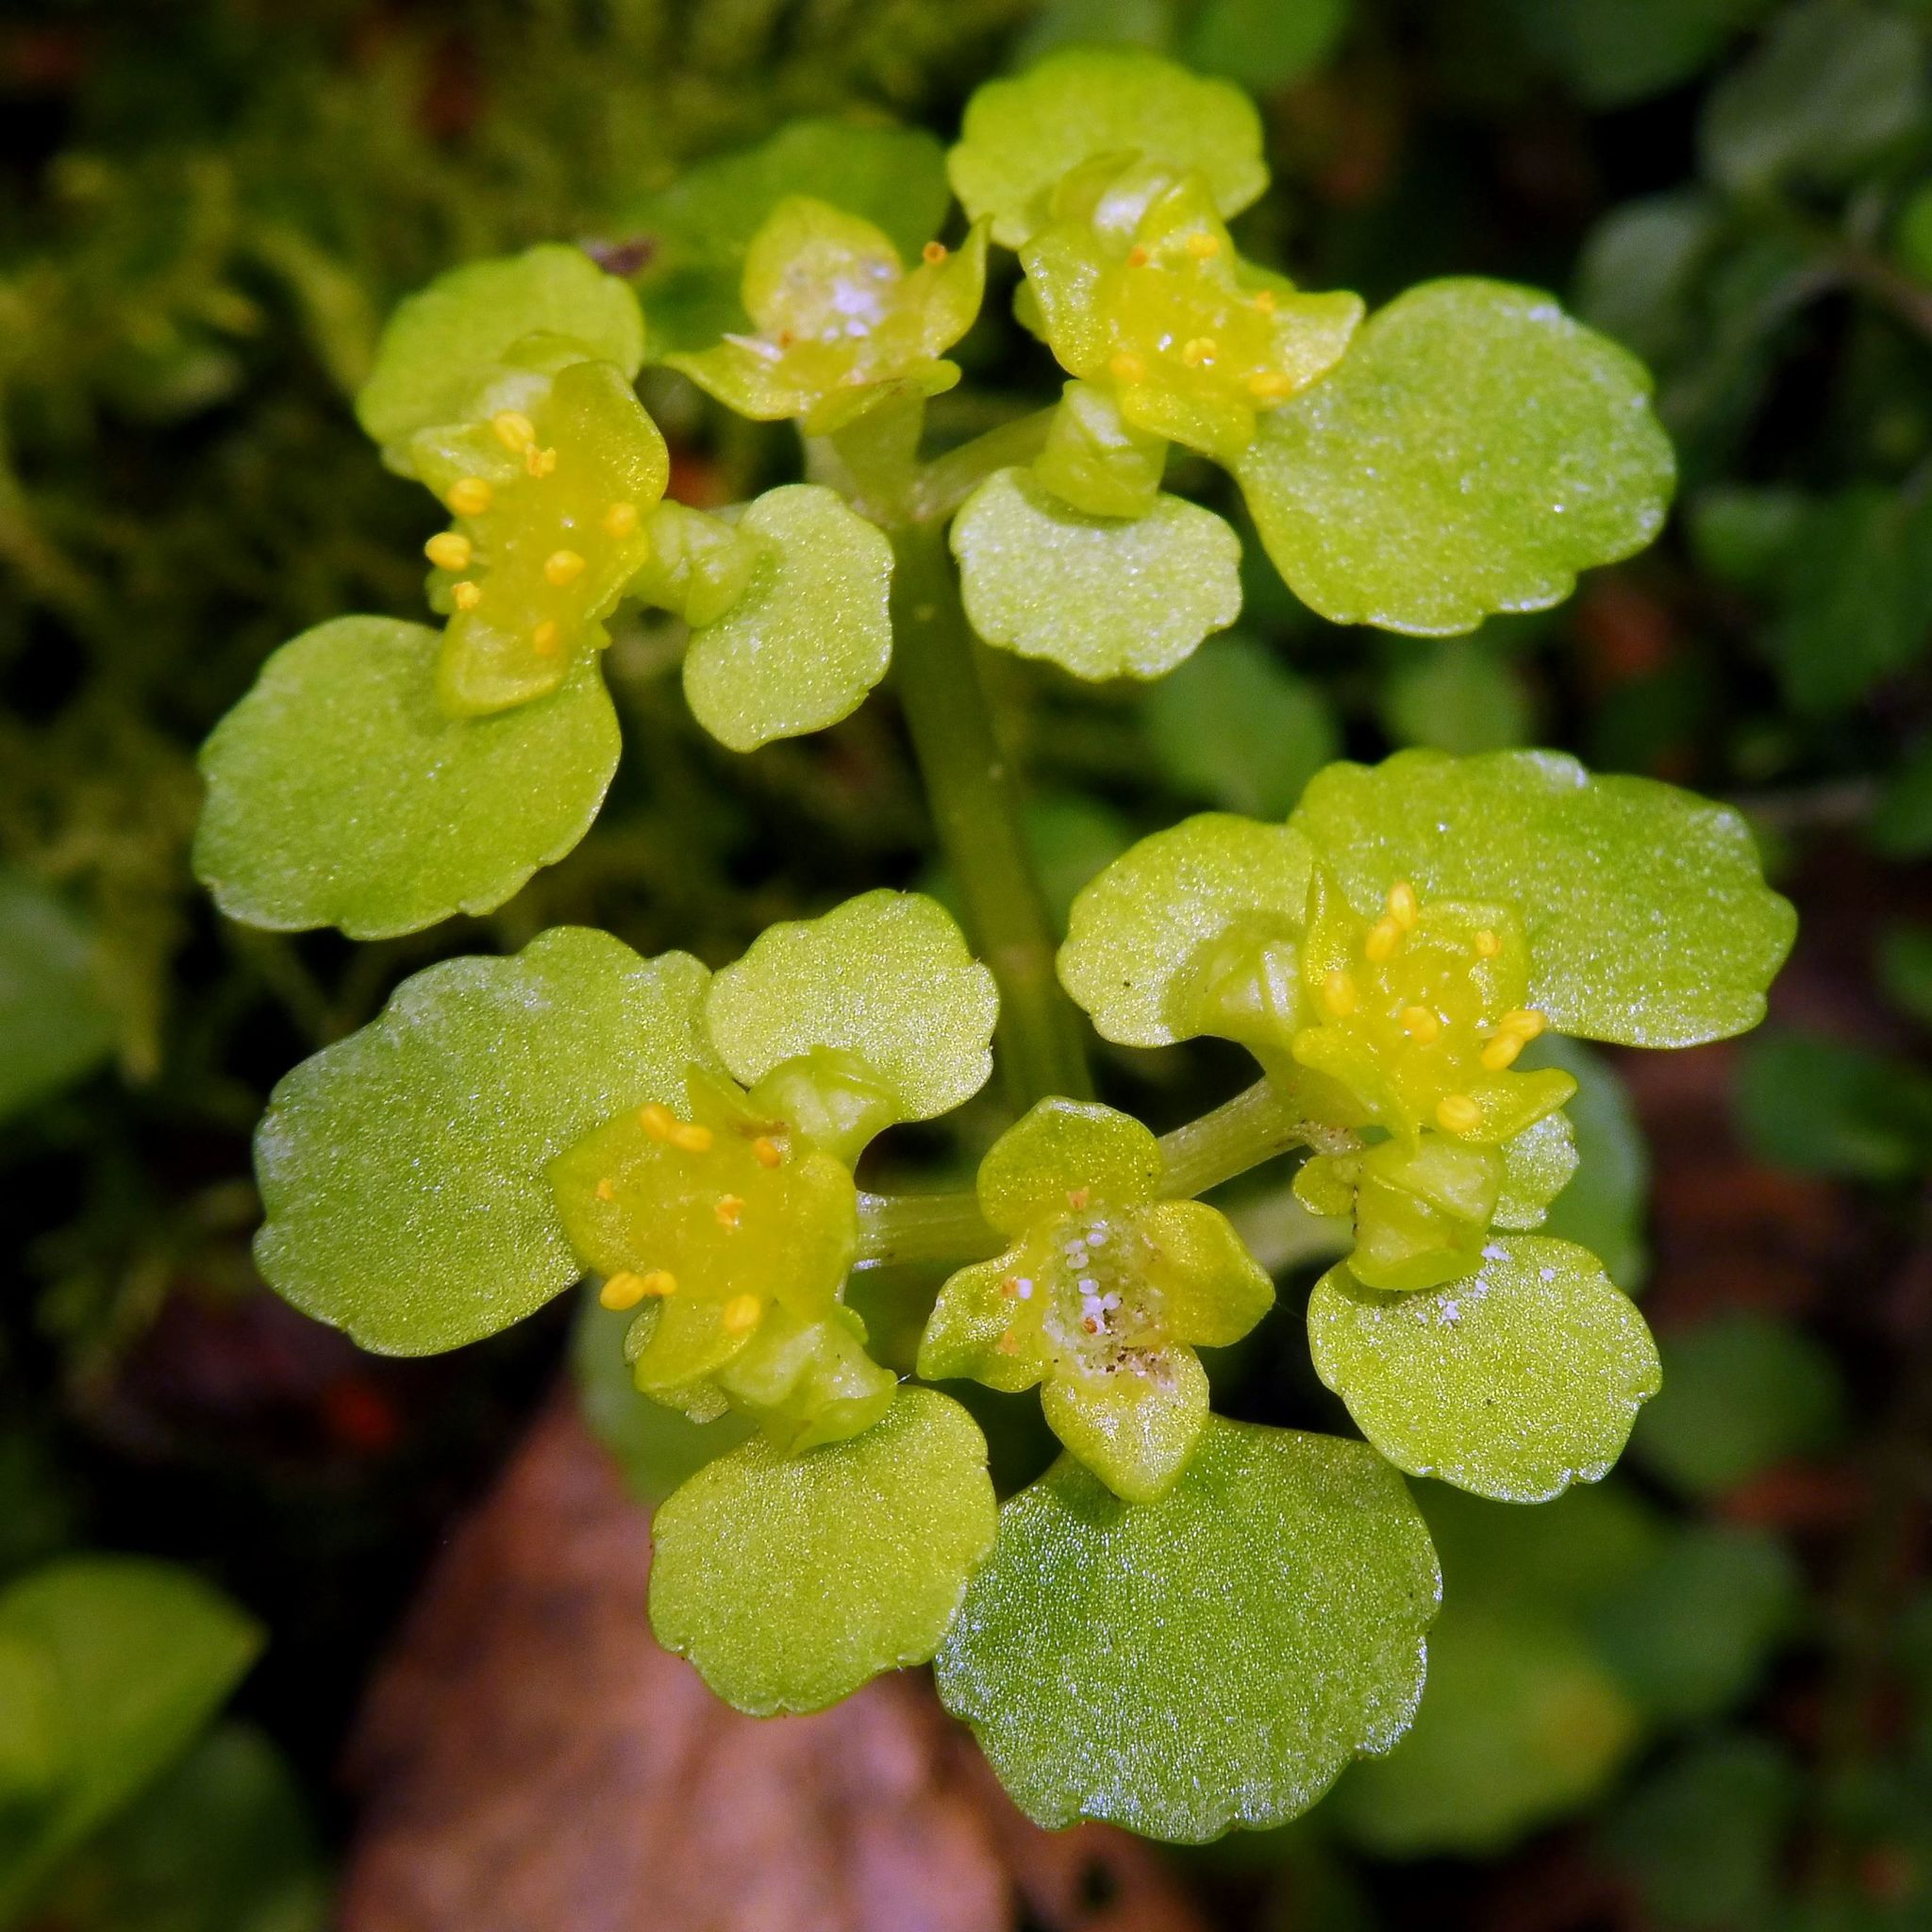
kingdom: Plantae
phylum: Tracheophyta
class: Magnoliopsida
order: Saxifragales
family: Saxifragaceae
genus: Chrysosplenium
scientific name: Chrysosplenium oppositifolium
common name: Opposite-leaved golden-saxifrage
